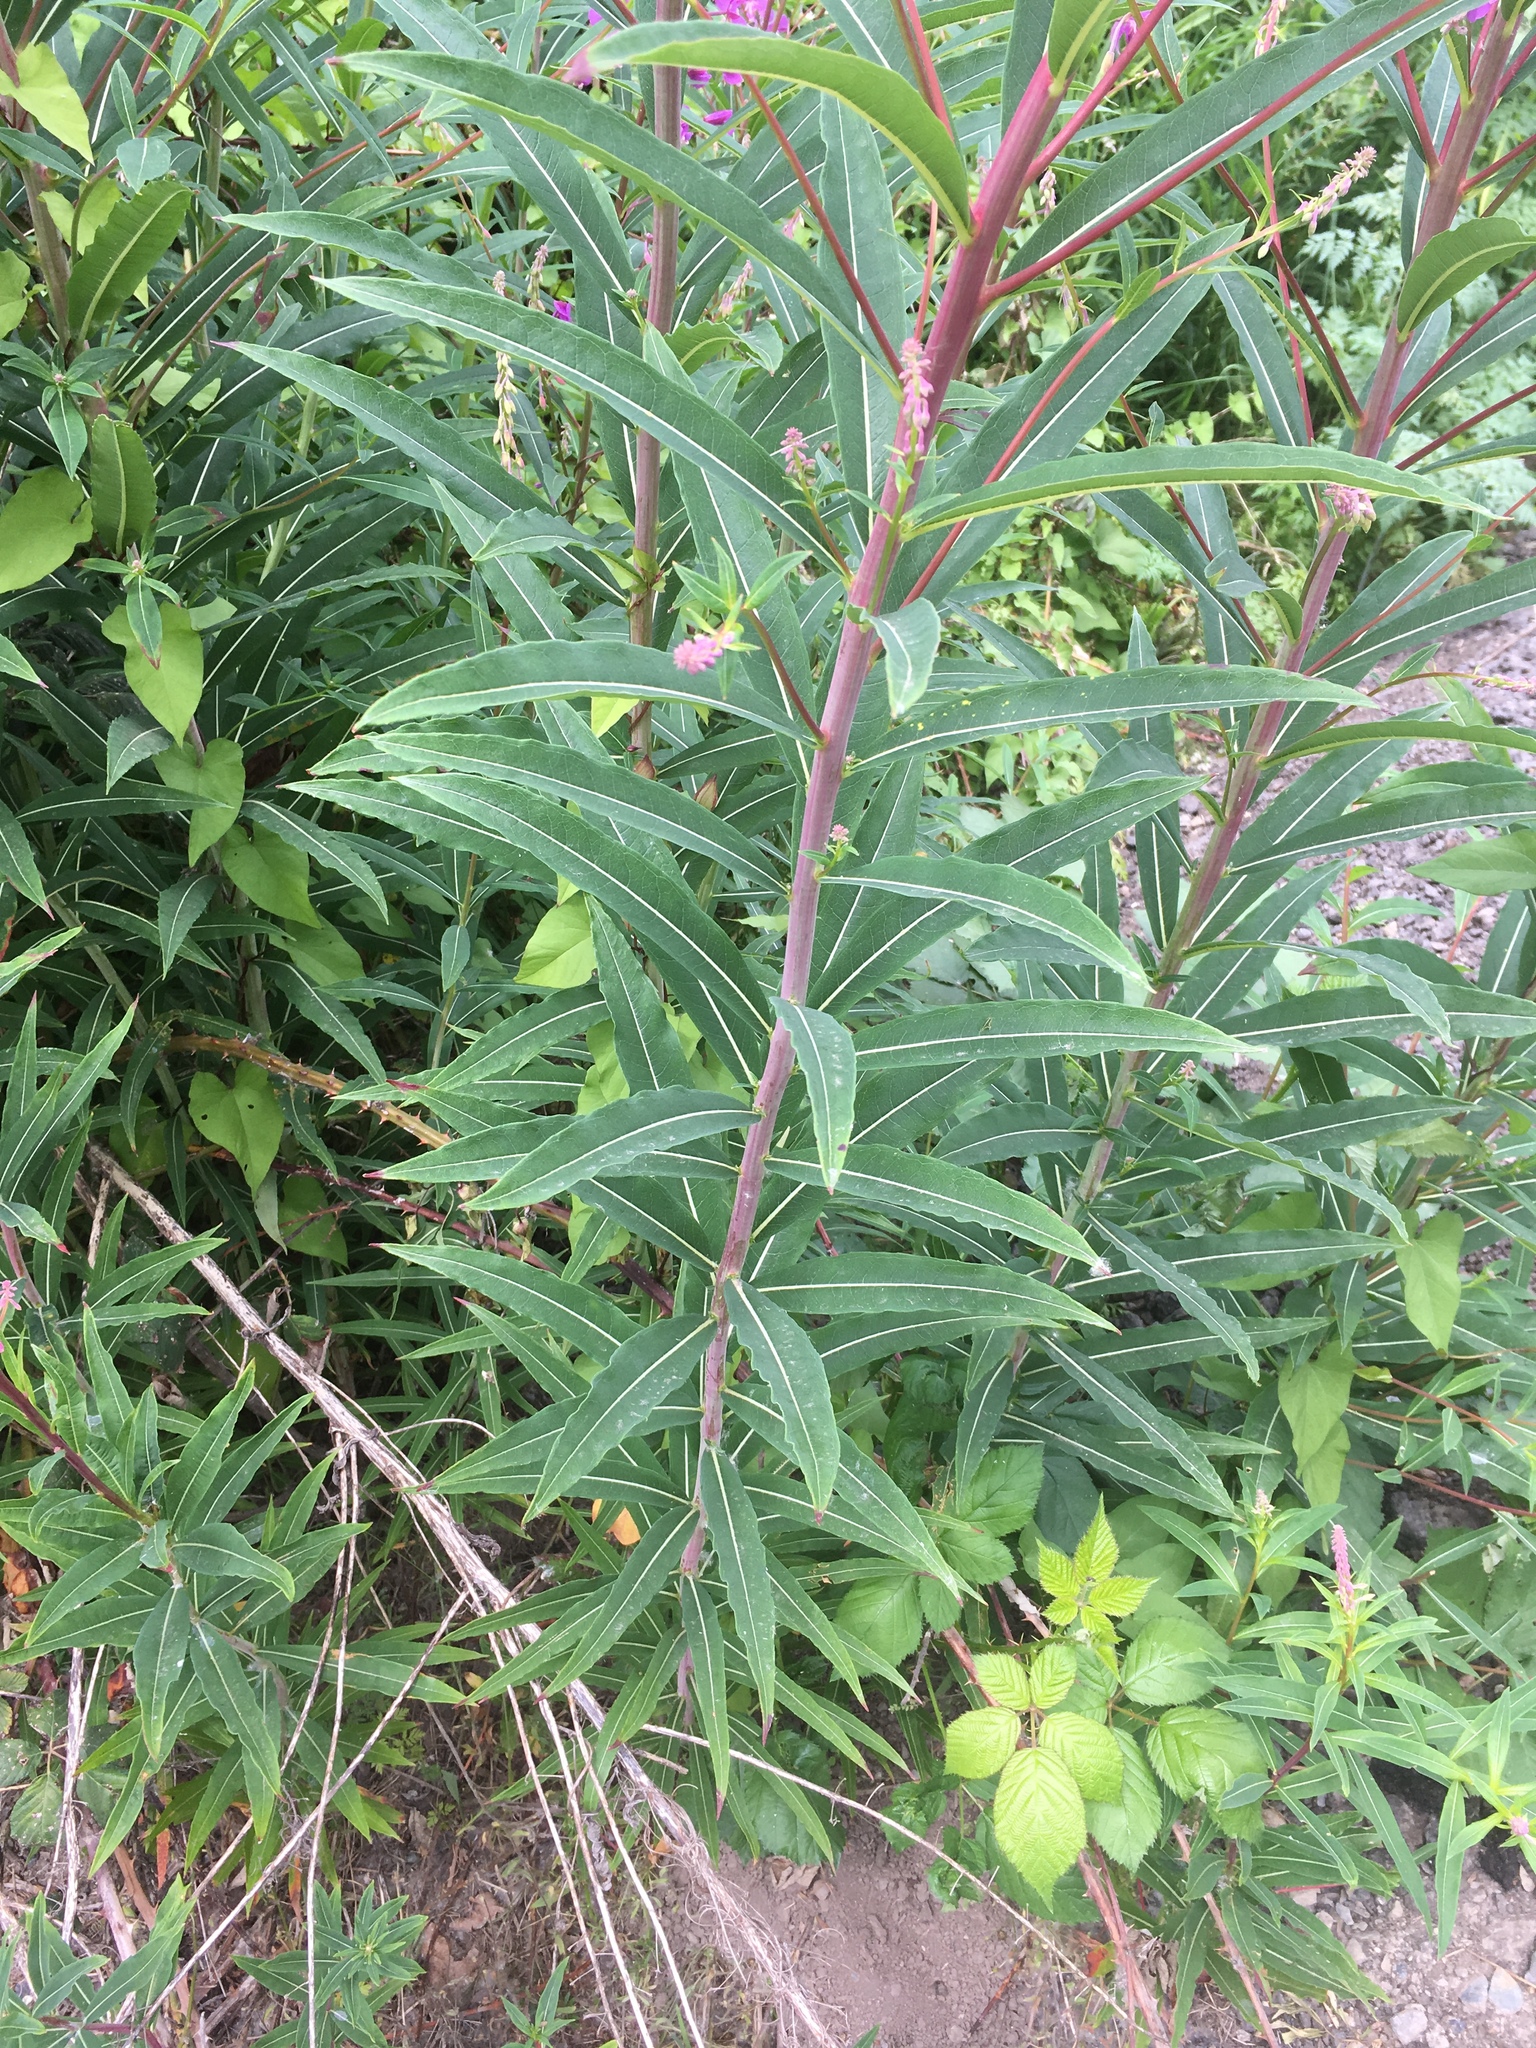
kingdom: Plantae
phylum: Tracheophyta
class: Magnoliopsida
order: Myrtales
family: Onagraceae
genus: Chamaenerion
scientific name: Chamaenerion angustifolium
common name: Fireweed
